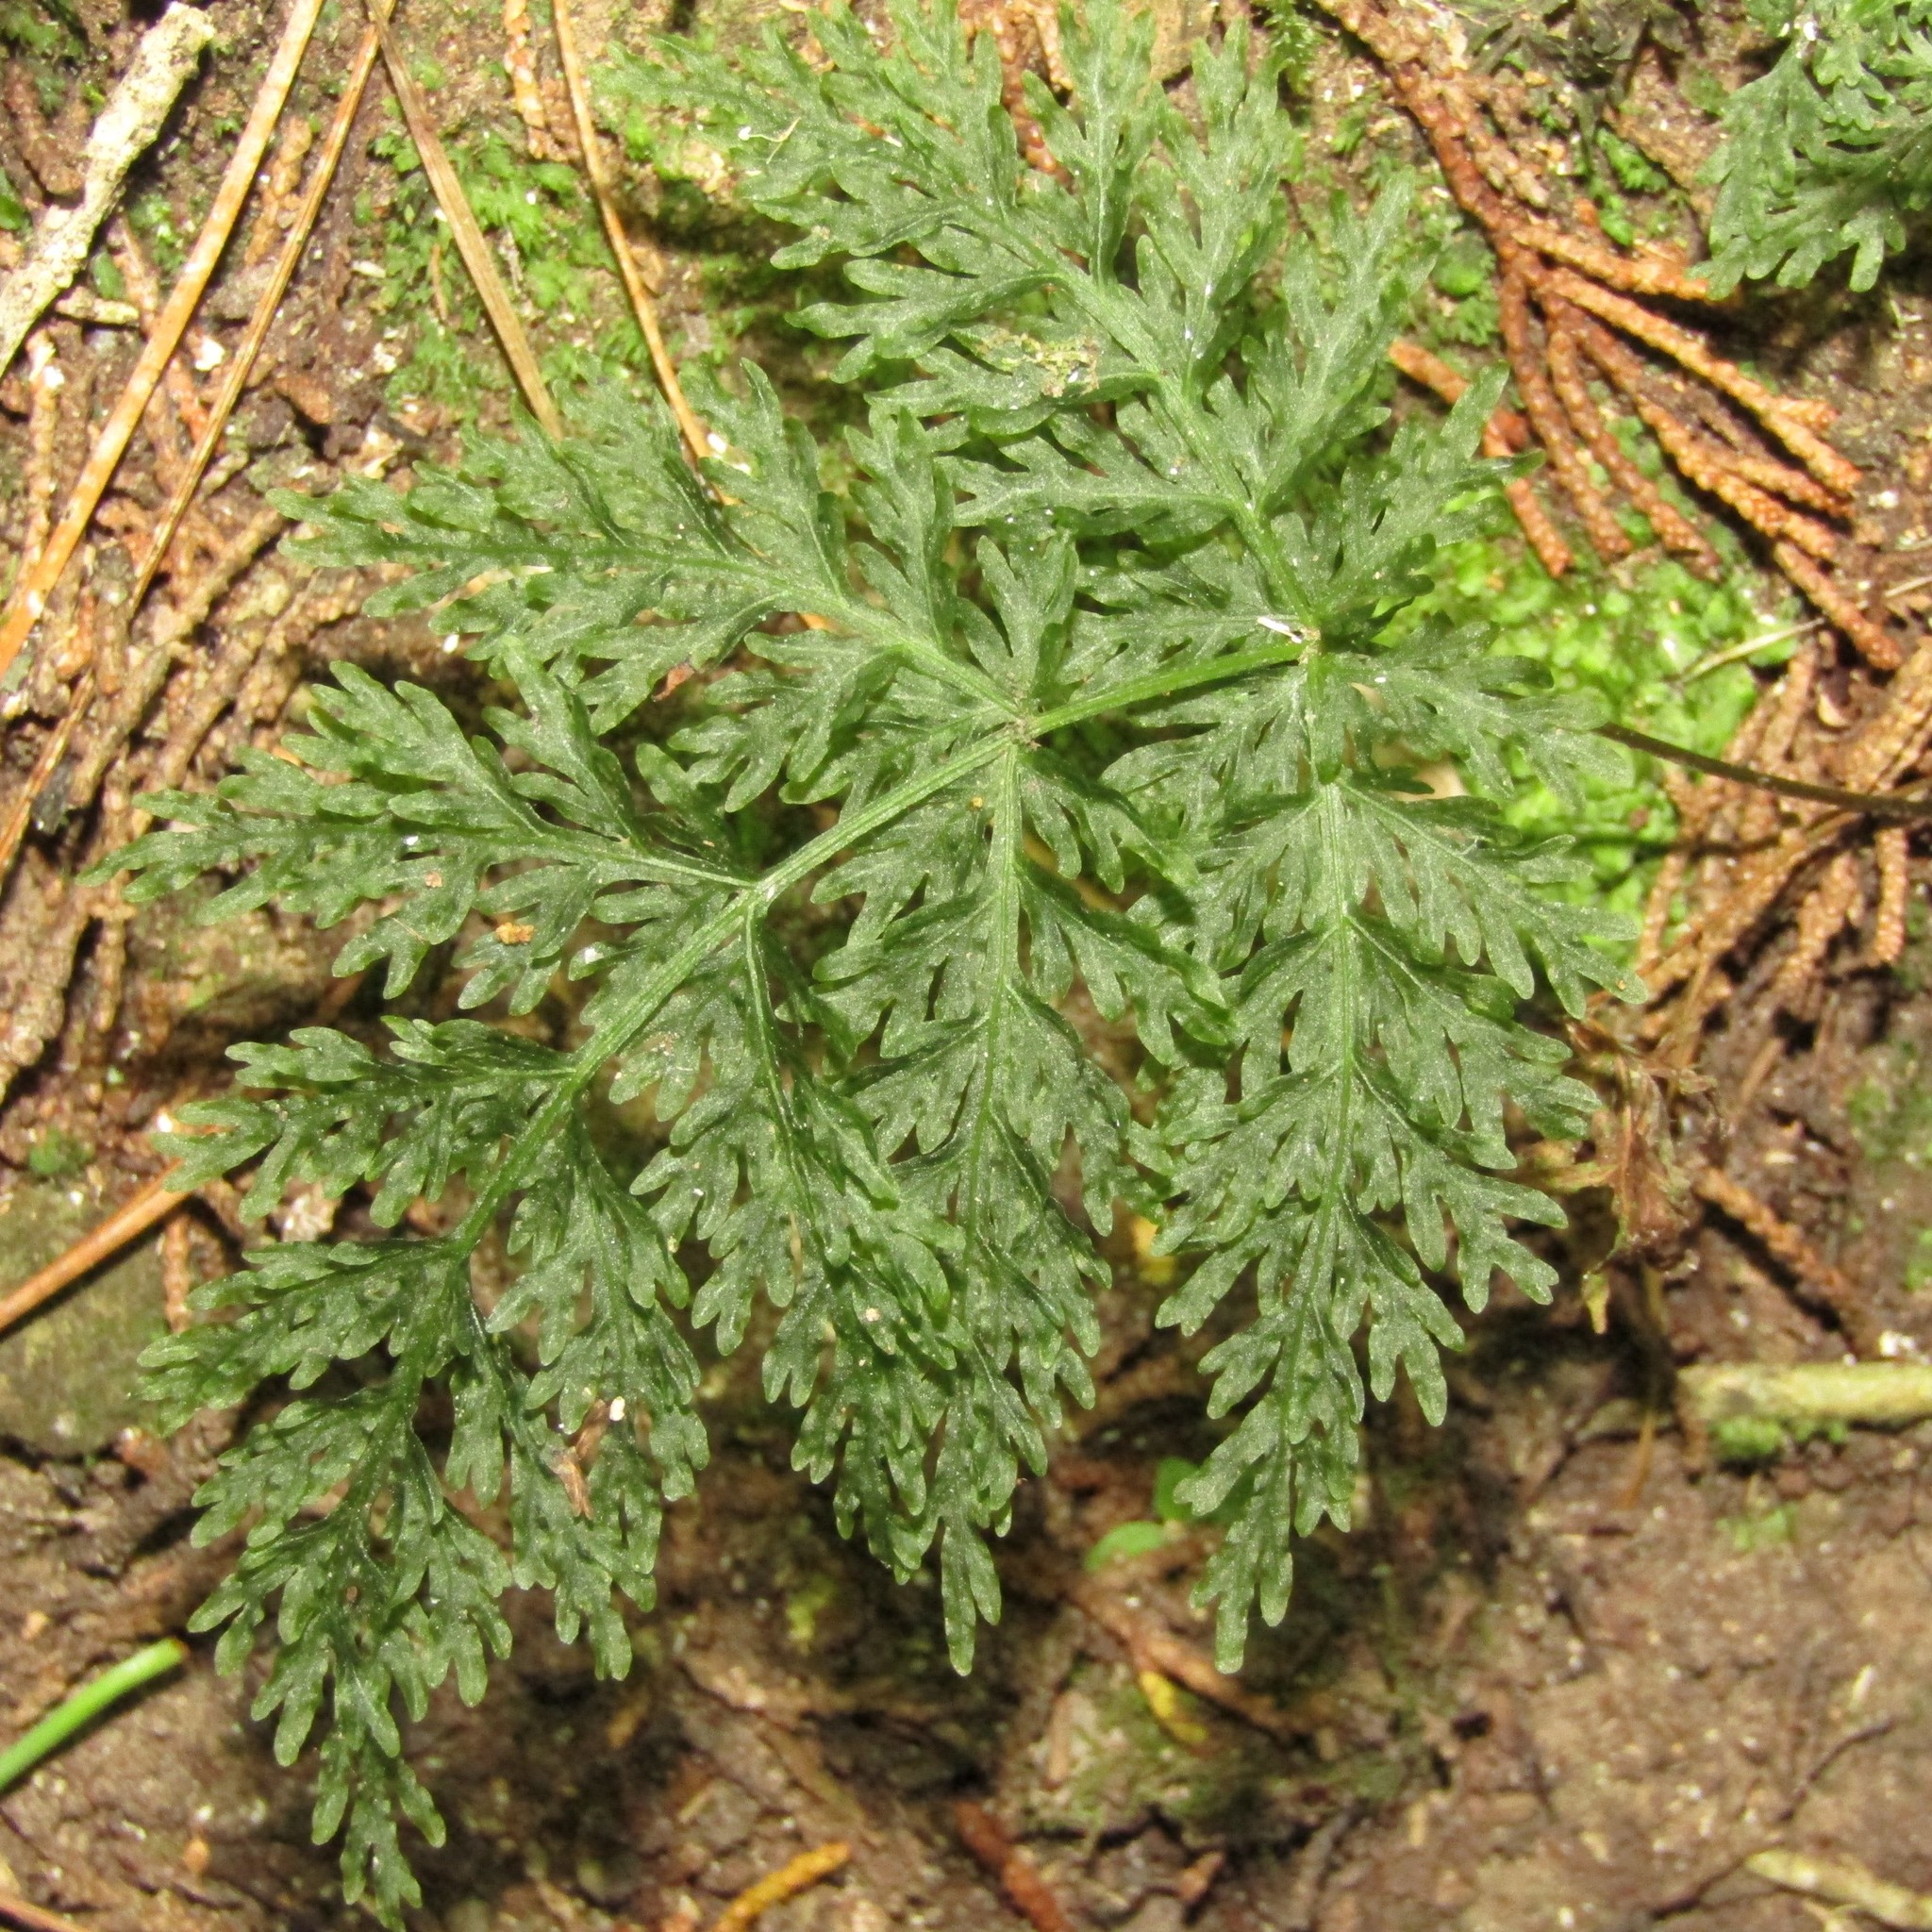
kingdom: Plantae
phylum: Tracheophyta
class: Polypodiopsida
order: Osmundales
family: Osmundaceae
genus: Leptopteris
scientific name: Leptopteris hymenophylloides
